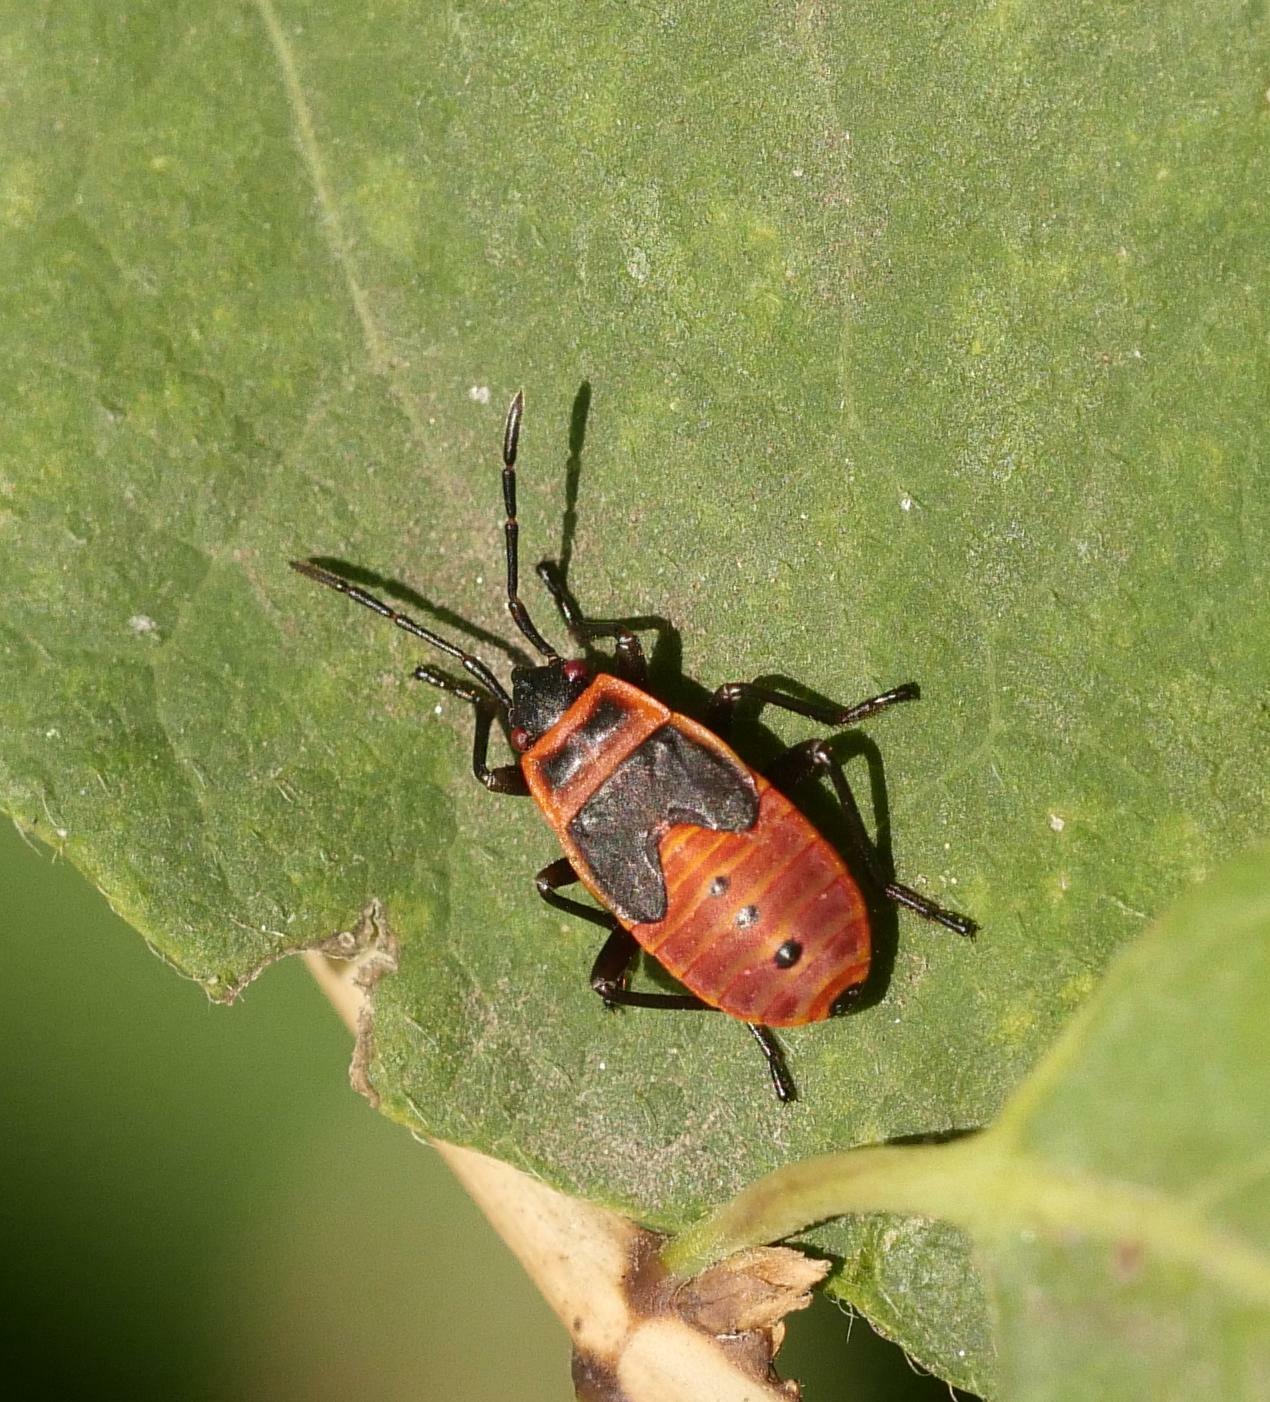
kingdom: Animalia
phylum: Arthropoda
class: Insecta
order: Hemiptera
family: Pyrrhocoridae
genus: Pyrrhocoris
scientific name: Pyrrhocoris apterus
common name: Firebug
